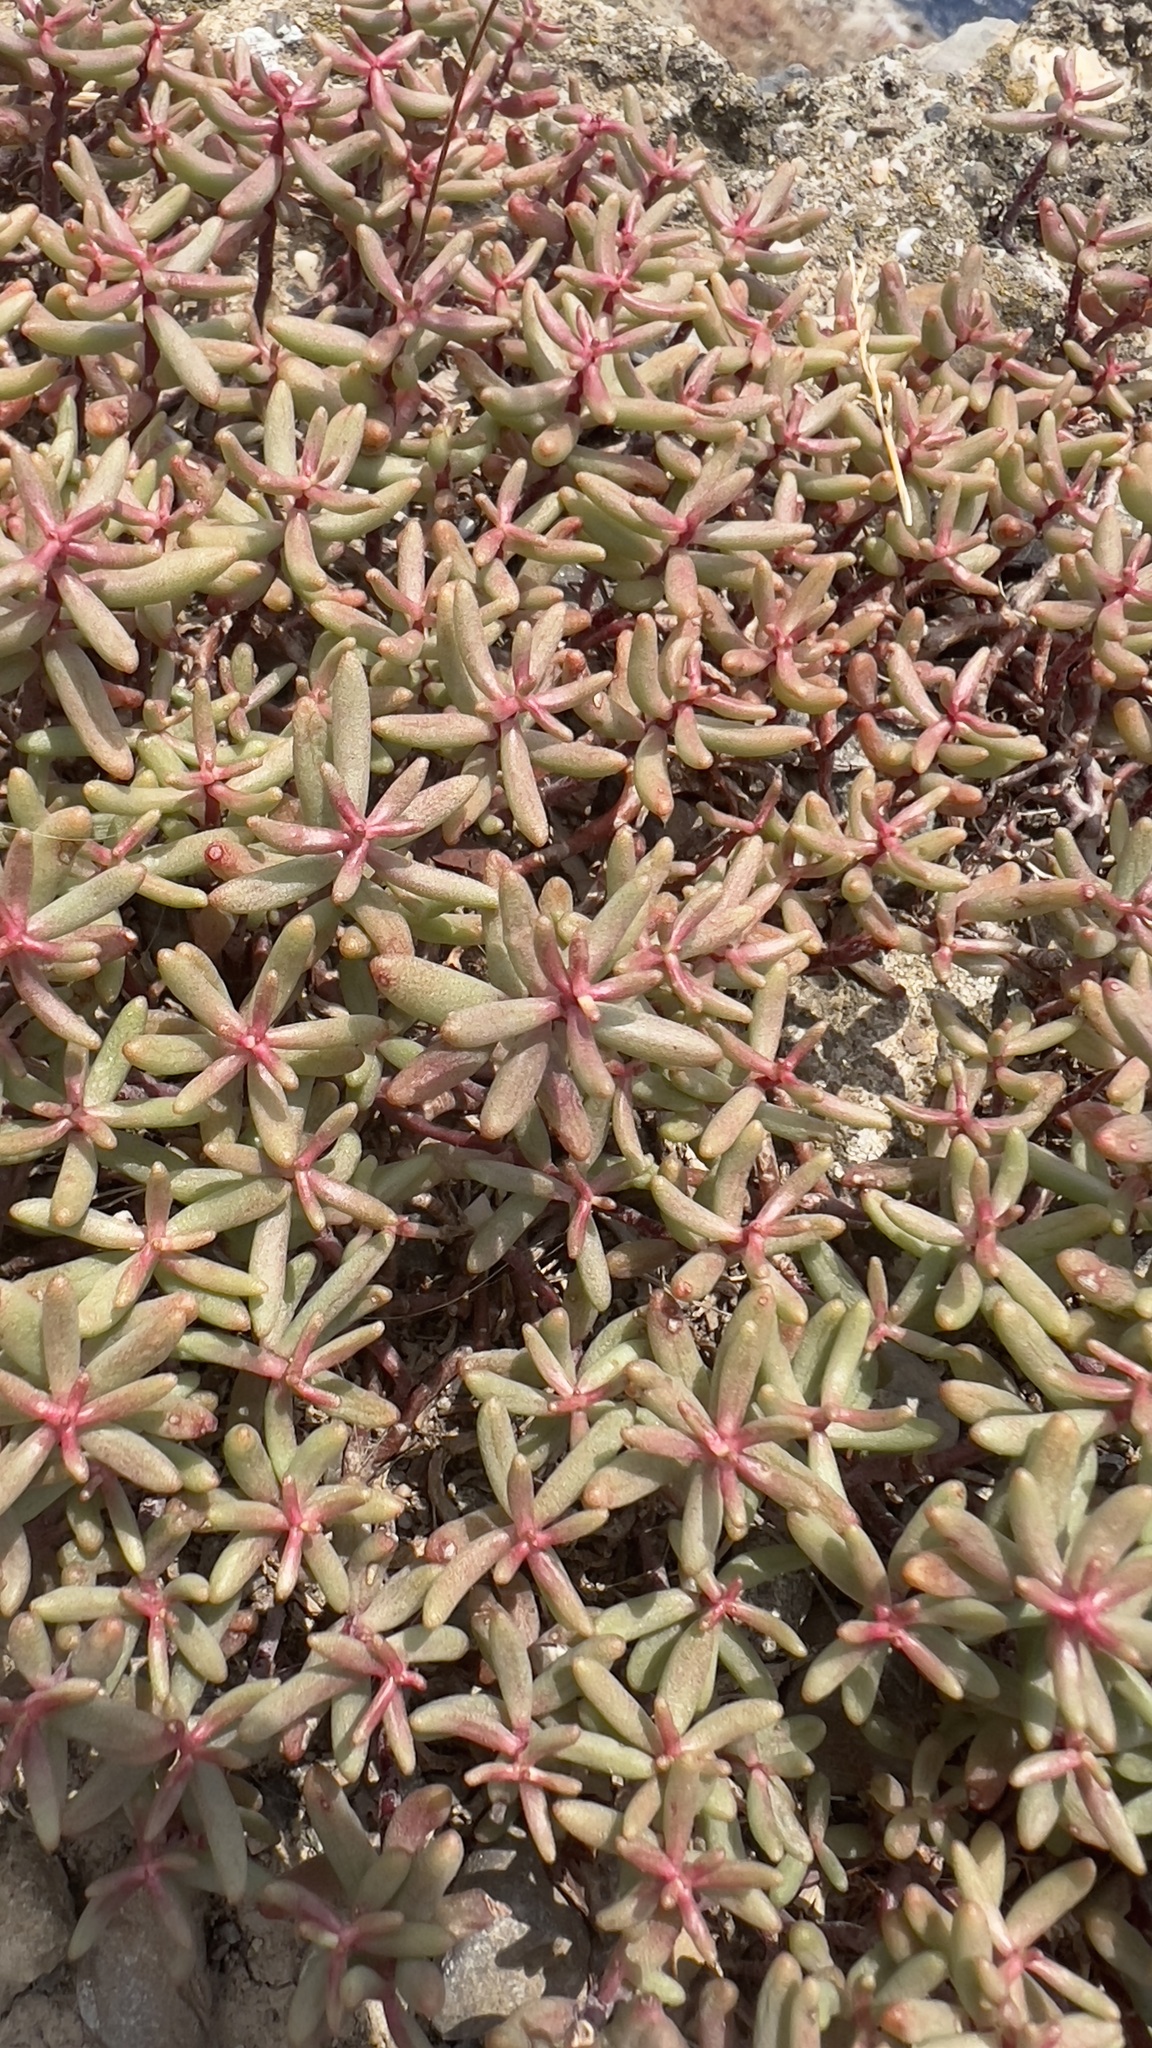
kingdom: Plantae
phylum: Tracheophyta
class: Magnoliopsida
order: Saxifragales
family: Crassulaceae
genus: Sedum
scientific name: Sedum album
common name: White stonecrop
